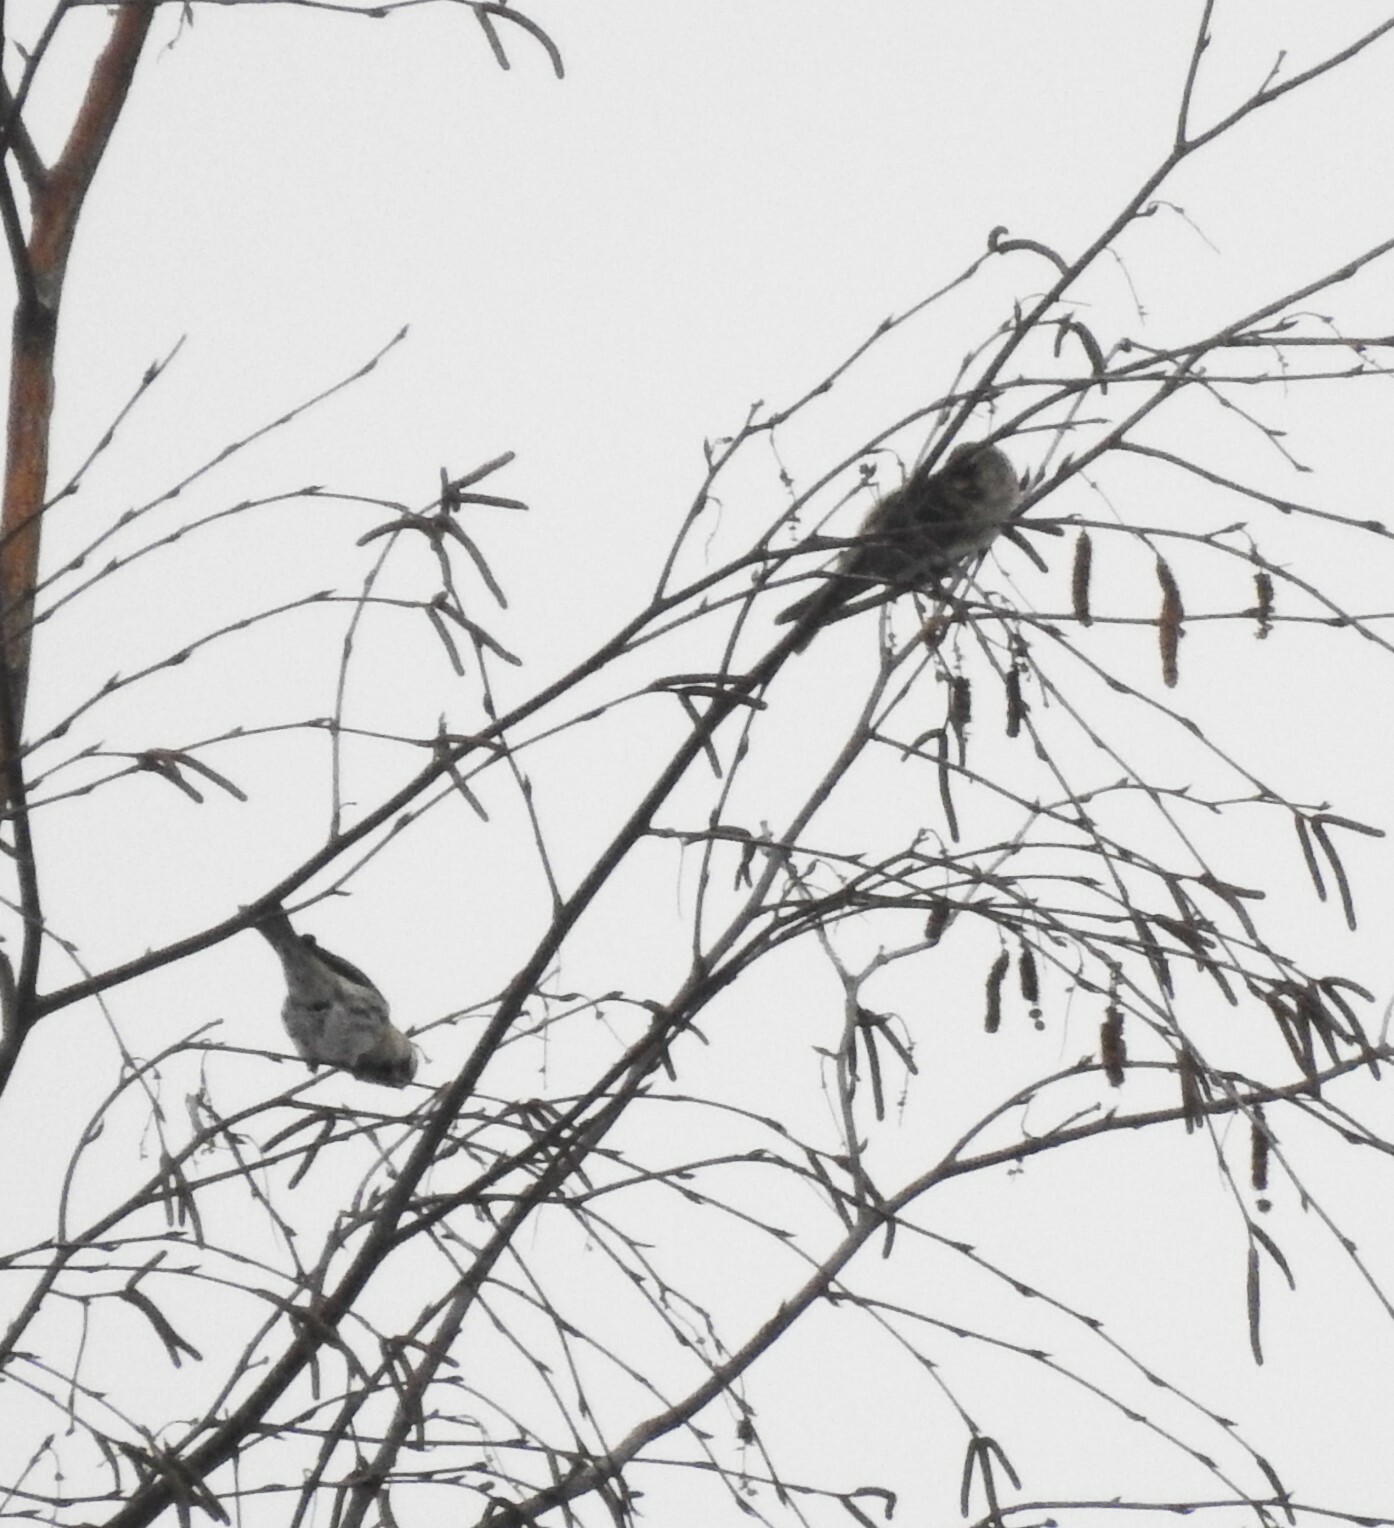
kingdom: Animalia
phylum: Chordata
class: Aves
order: Passeriformes
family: Fringillidae
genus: Acanthis
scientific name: Acanthis flammea
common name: Common redpoll
